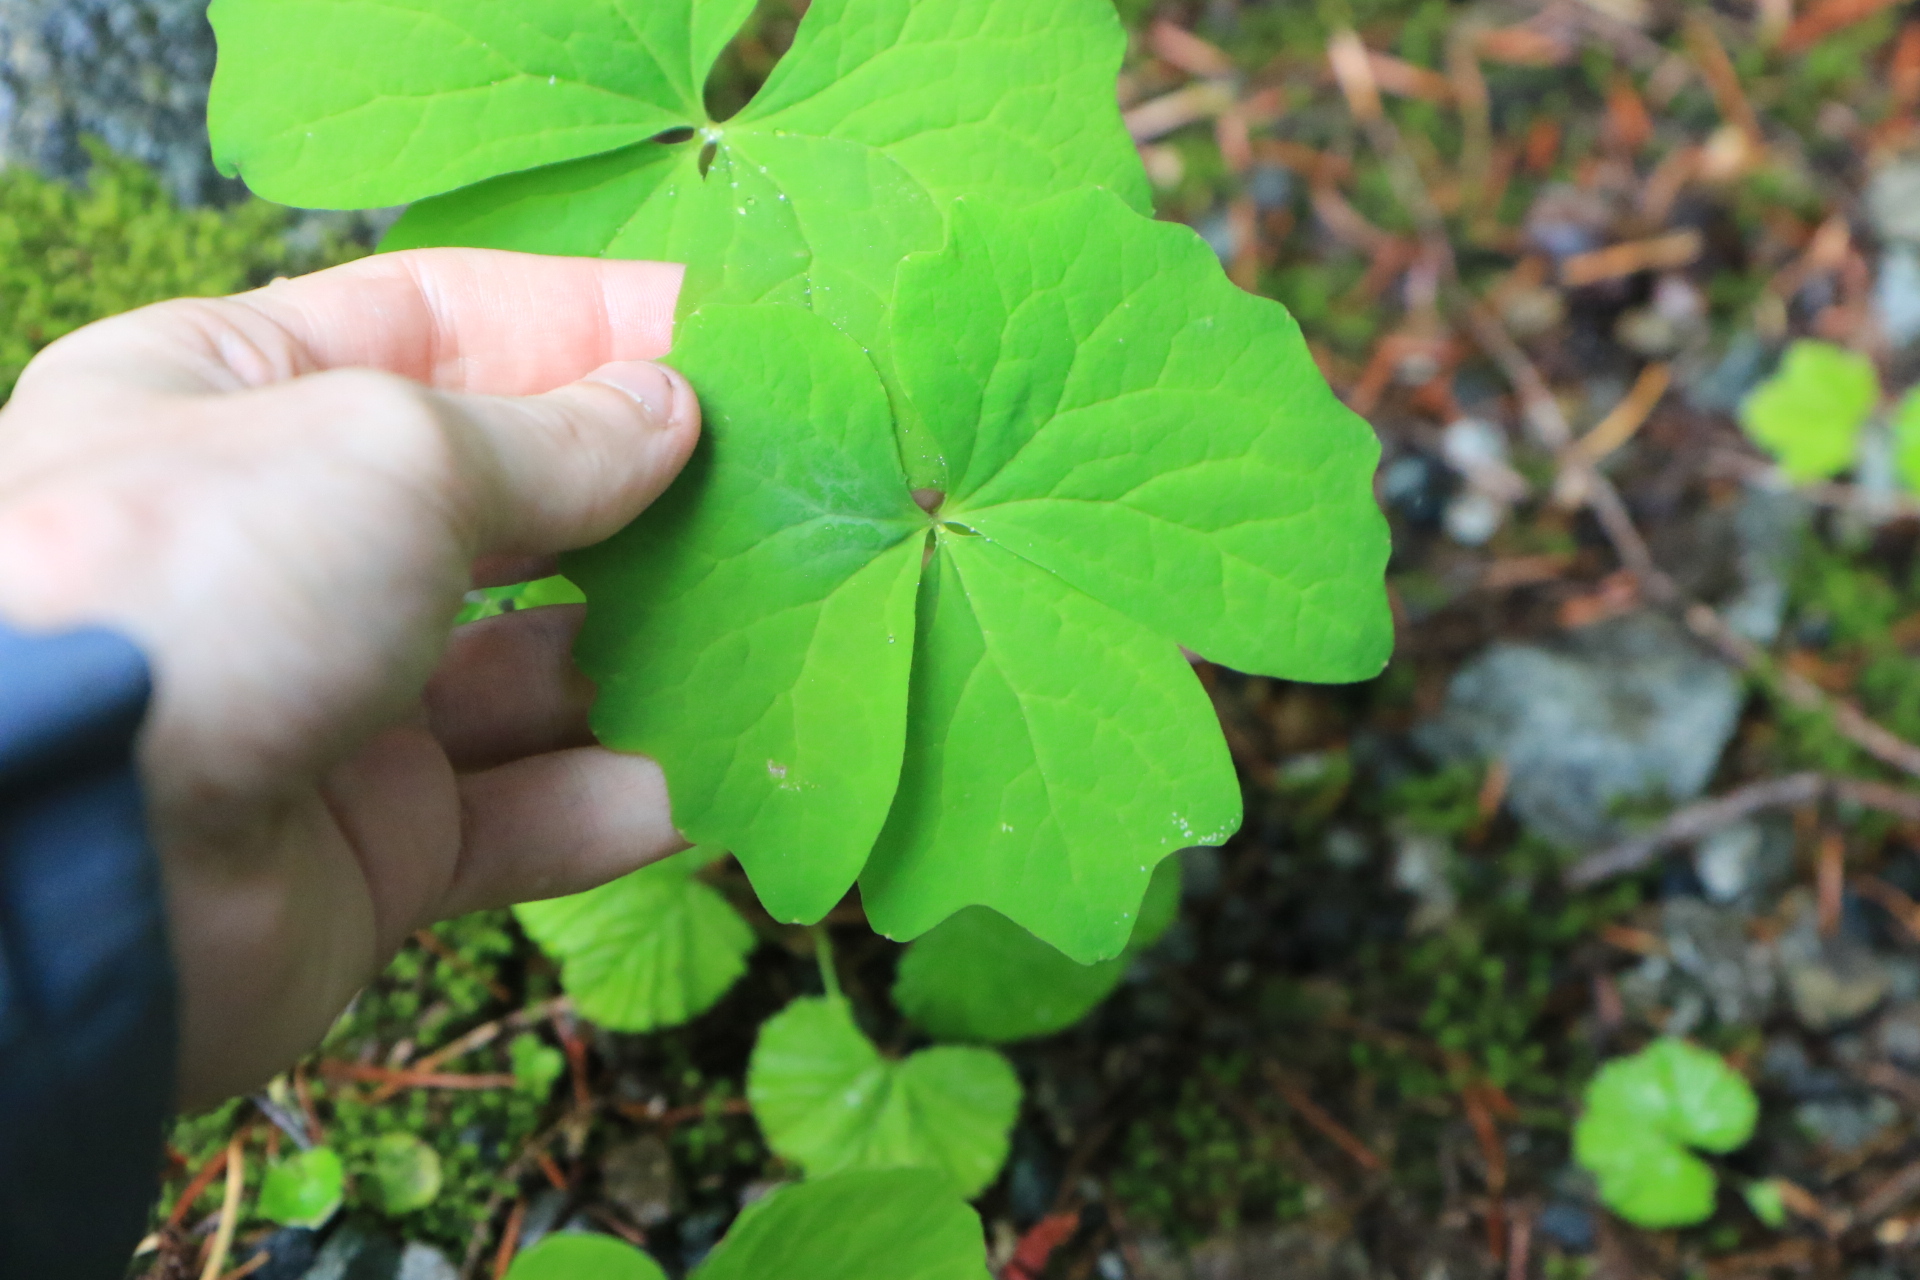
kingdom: Plantae
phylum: Tracheophyta
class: Magnoliopsida
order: Ranunculales
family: Berberidaceae
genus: Achlys
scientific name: Achlys triphylla
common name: Vanilla-leaf
